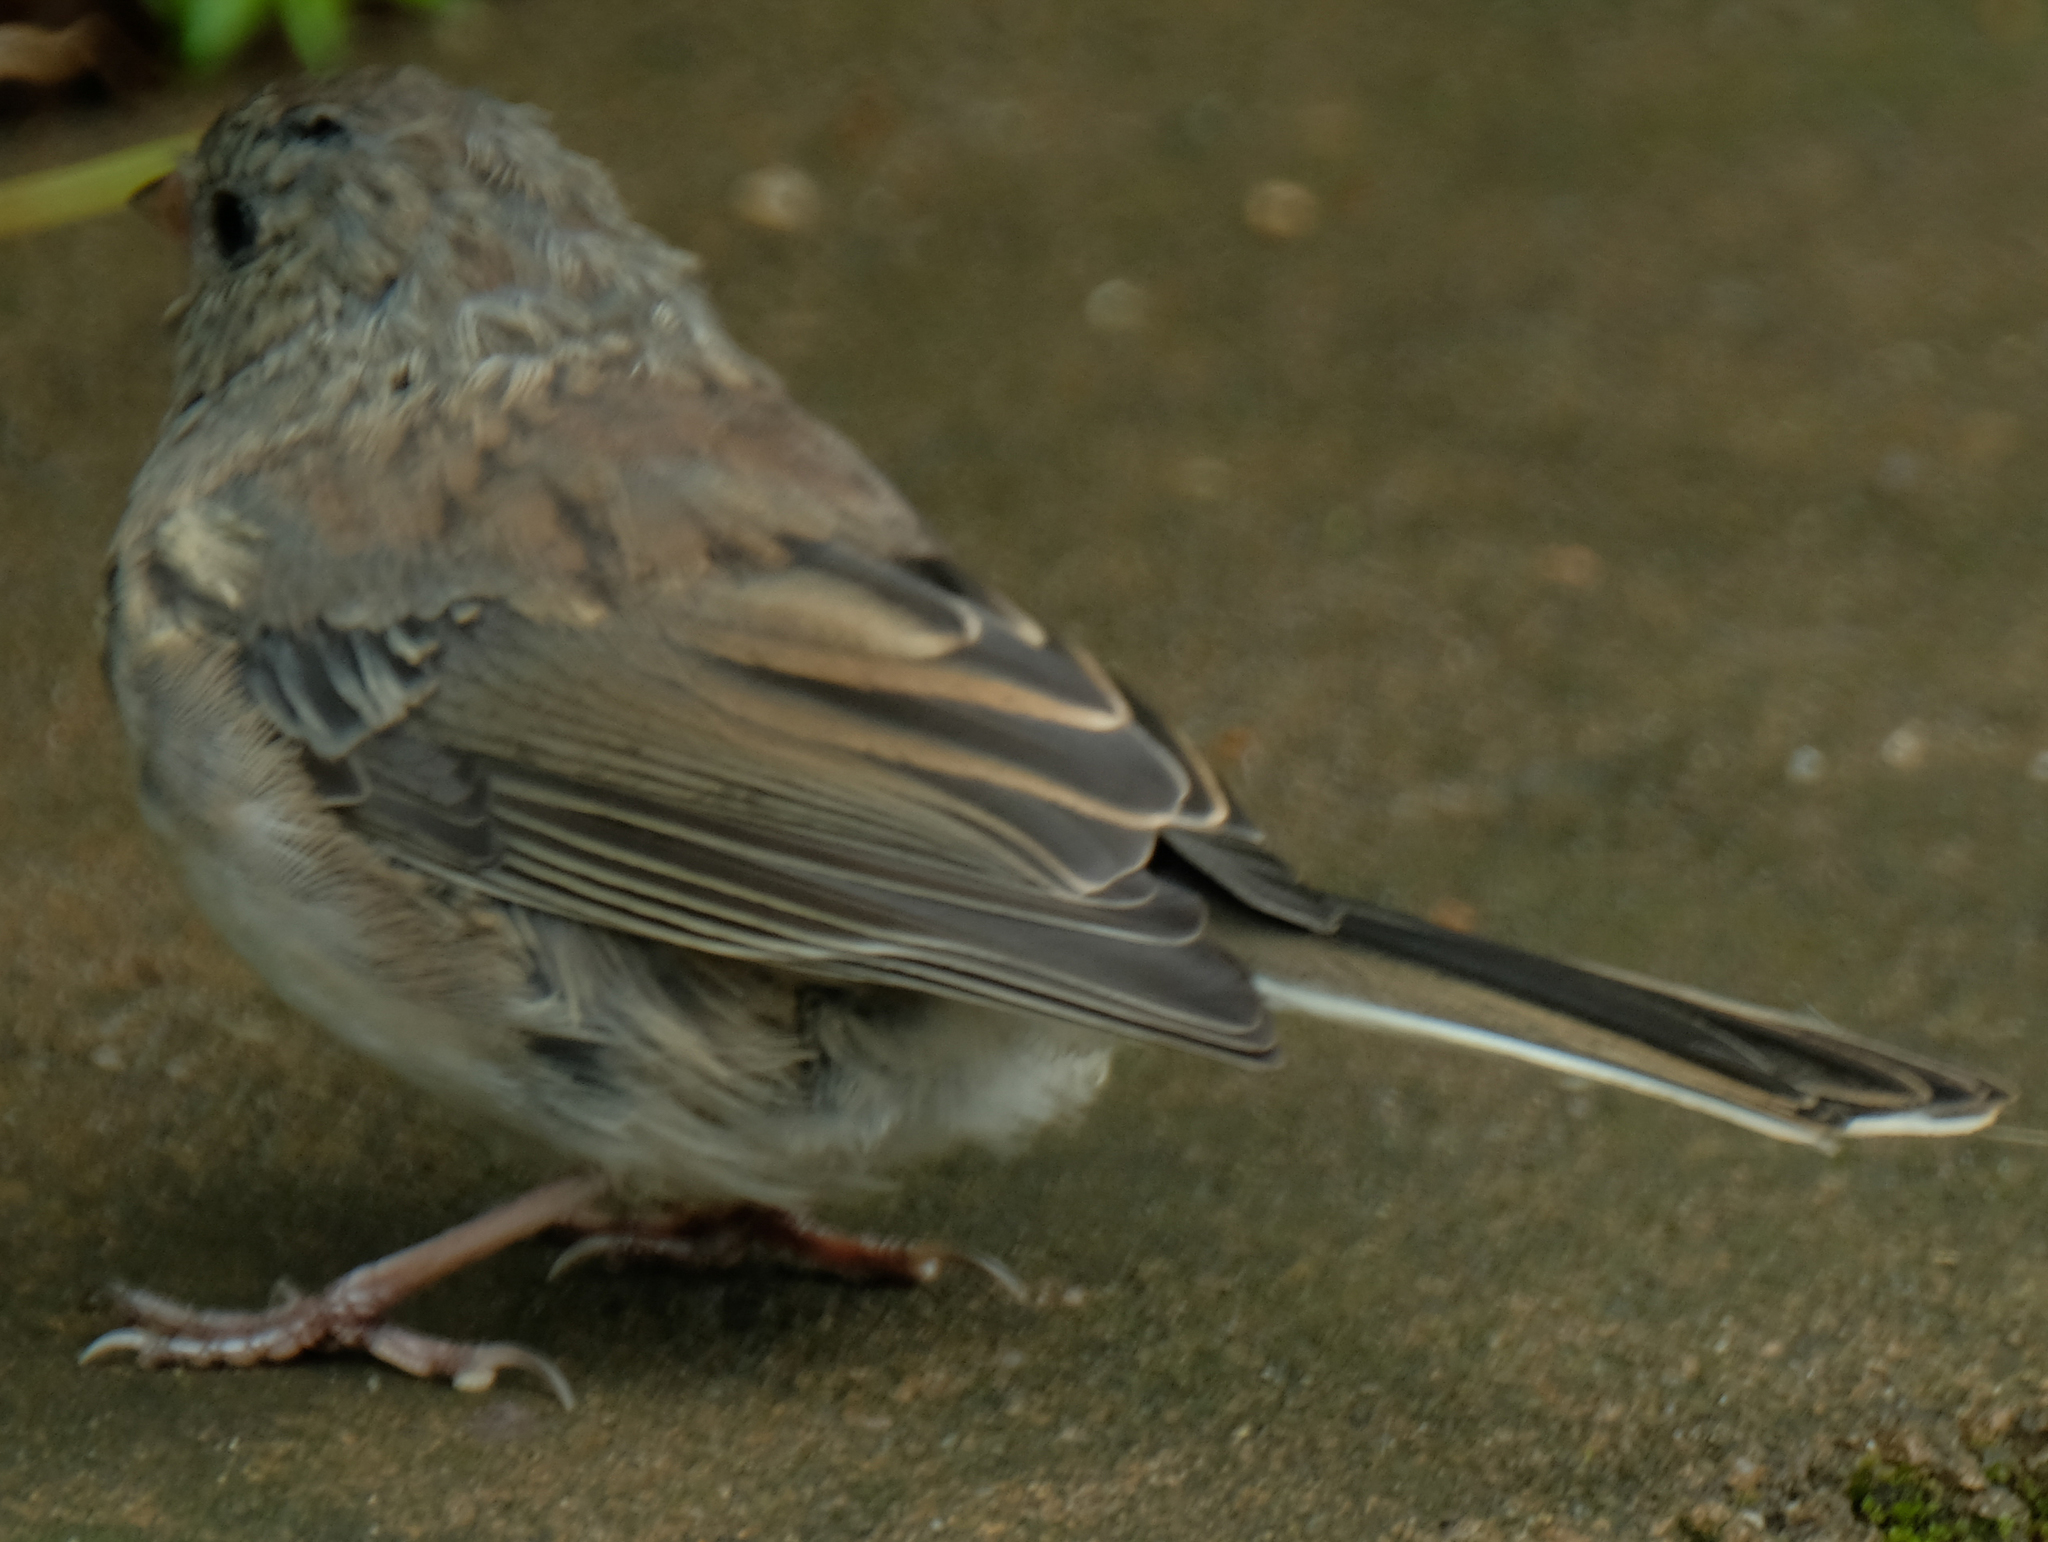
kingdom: Animalia
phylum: Chordata
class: Aves
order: Passeriformes
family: Passerellidae
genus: Junco
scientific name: Junco hyemalis
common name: Dark-eyed junco
